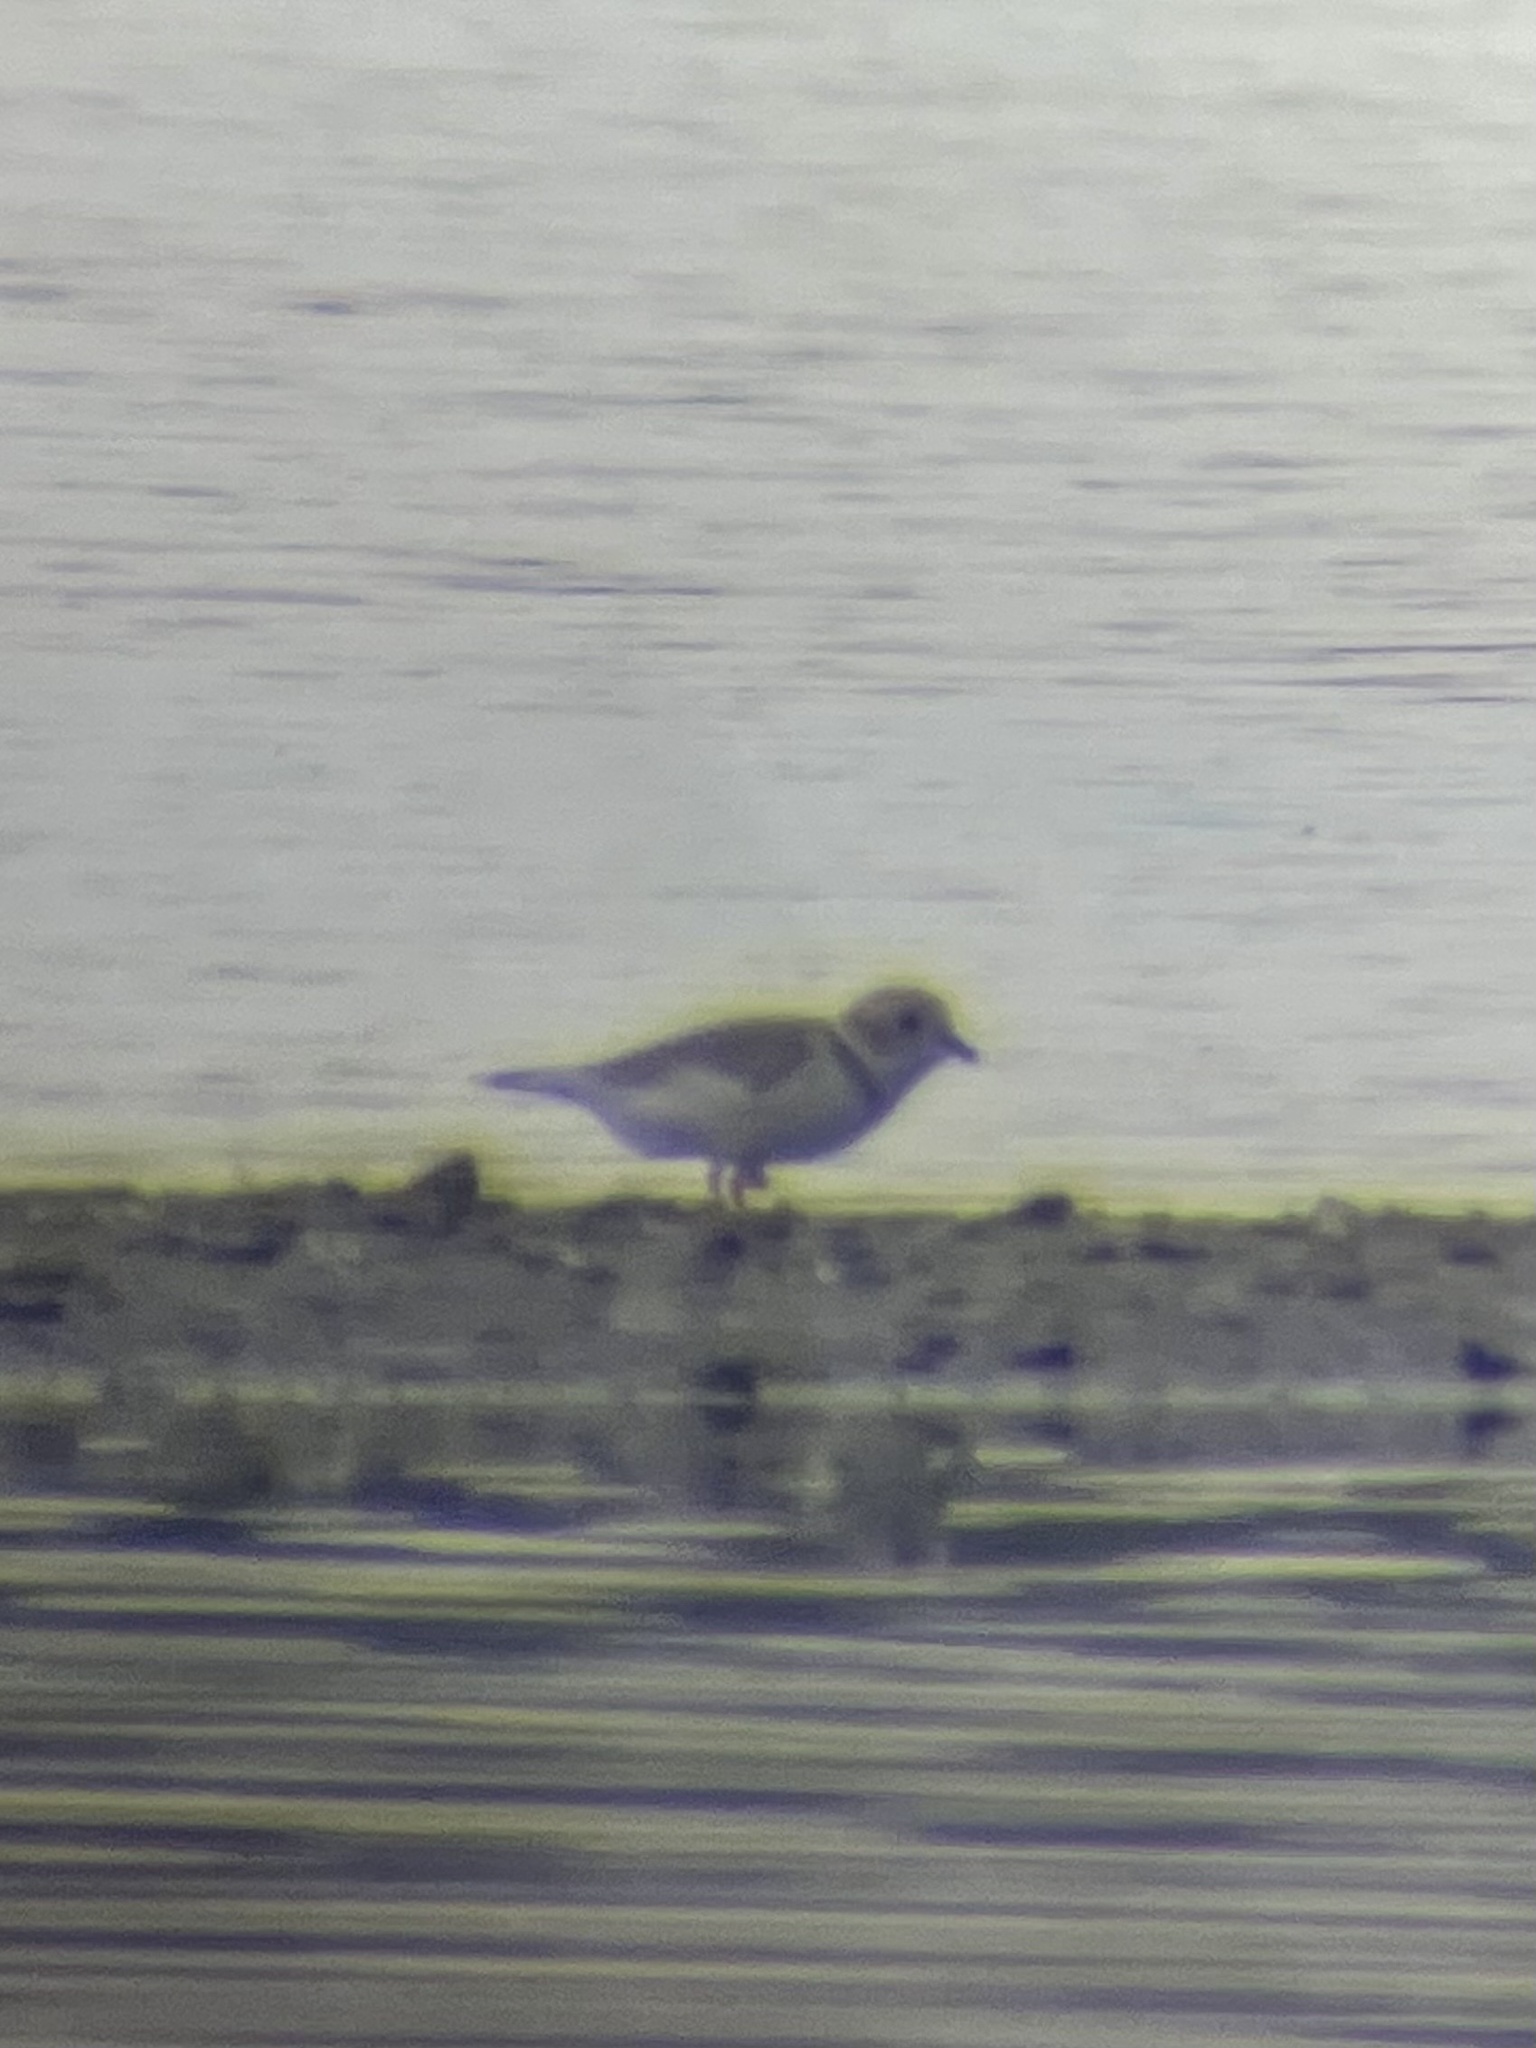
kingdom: Animalia
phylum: Chordata
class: Aves
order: Charadriiformes
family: Charadriidae
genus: Charadrius
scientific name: Charadrius melodus
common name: Piping plover
